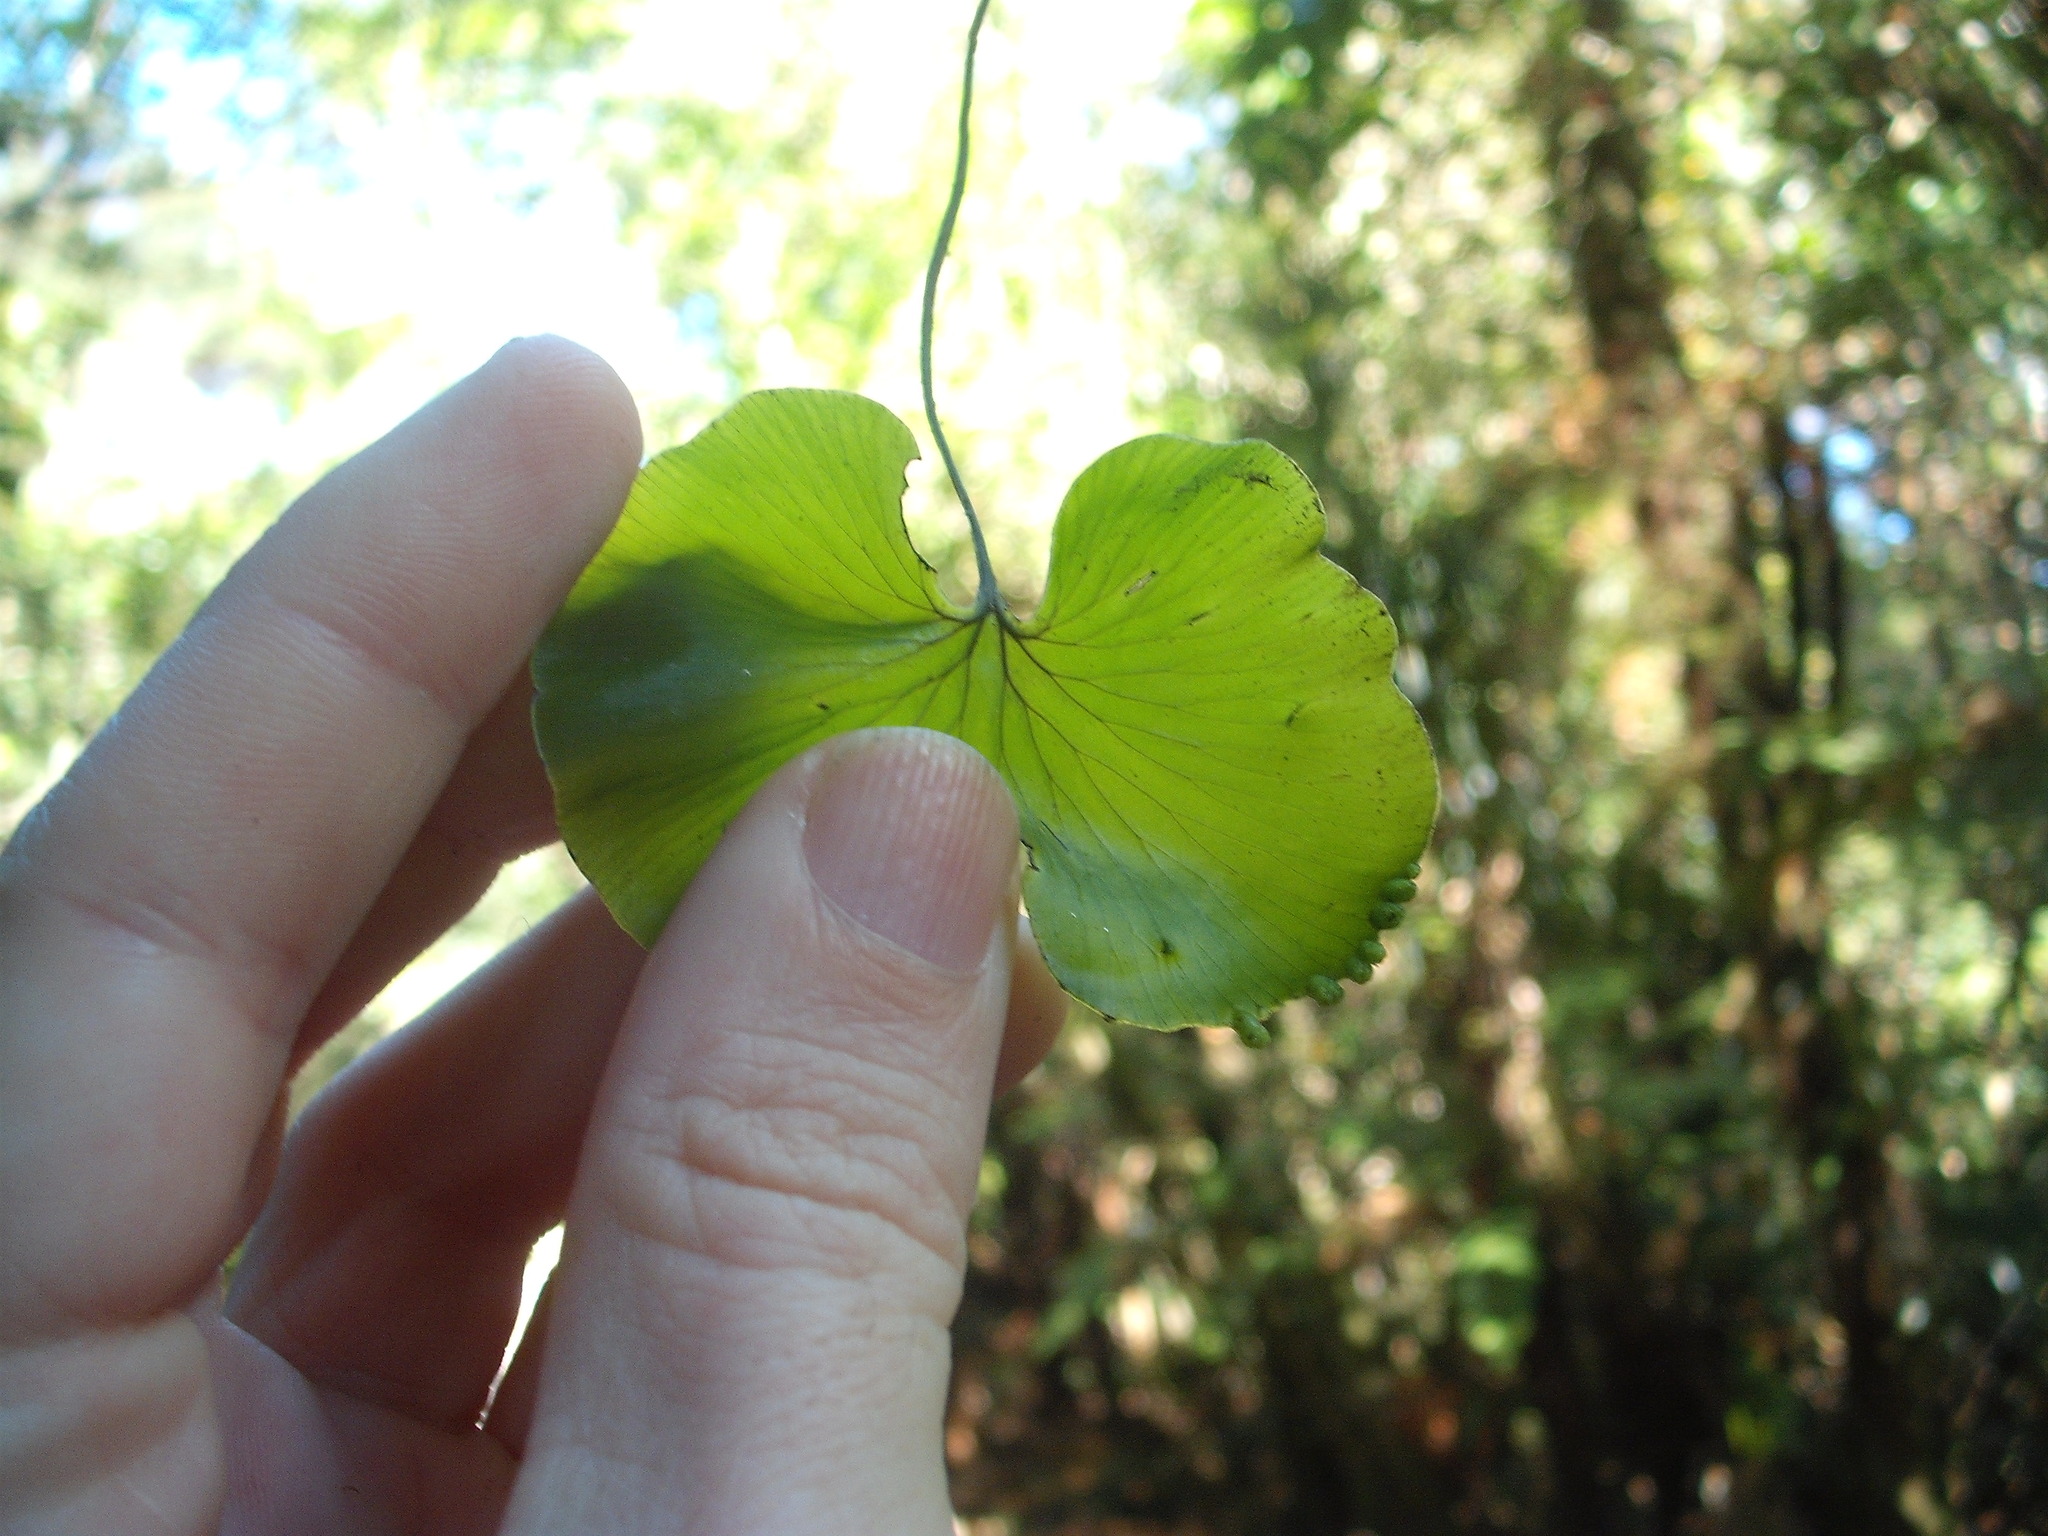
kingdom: Plantae
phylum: Tracheophyta
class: Polypodiopsida
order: Hymenophyllales
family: Hymenophyllaceae
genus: Hymenophyllum
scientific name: Hymenophyllum nephrophyllum
